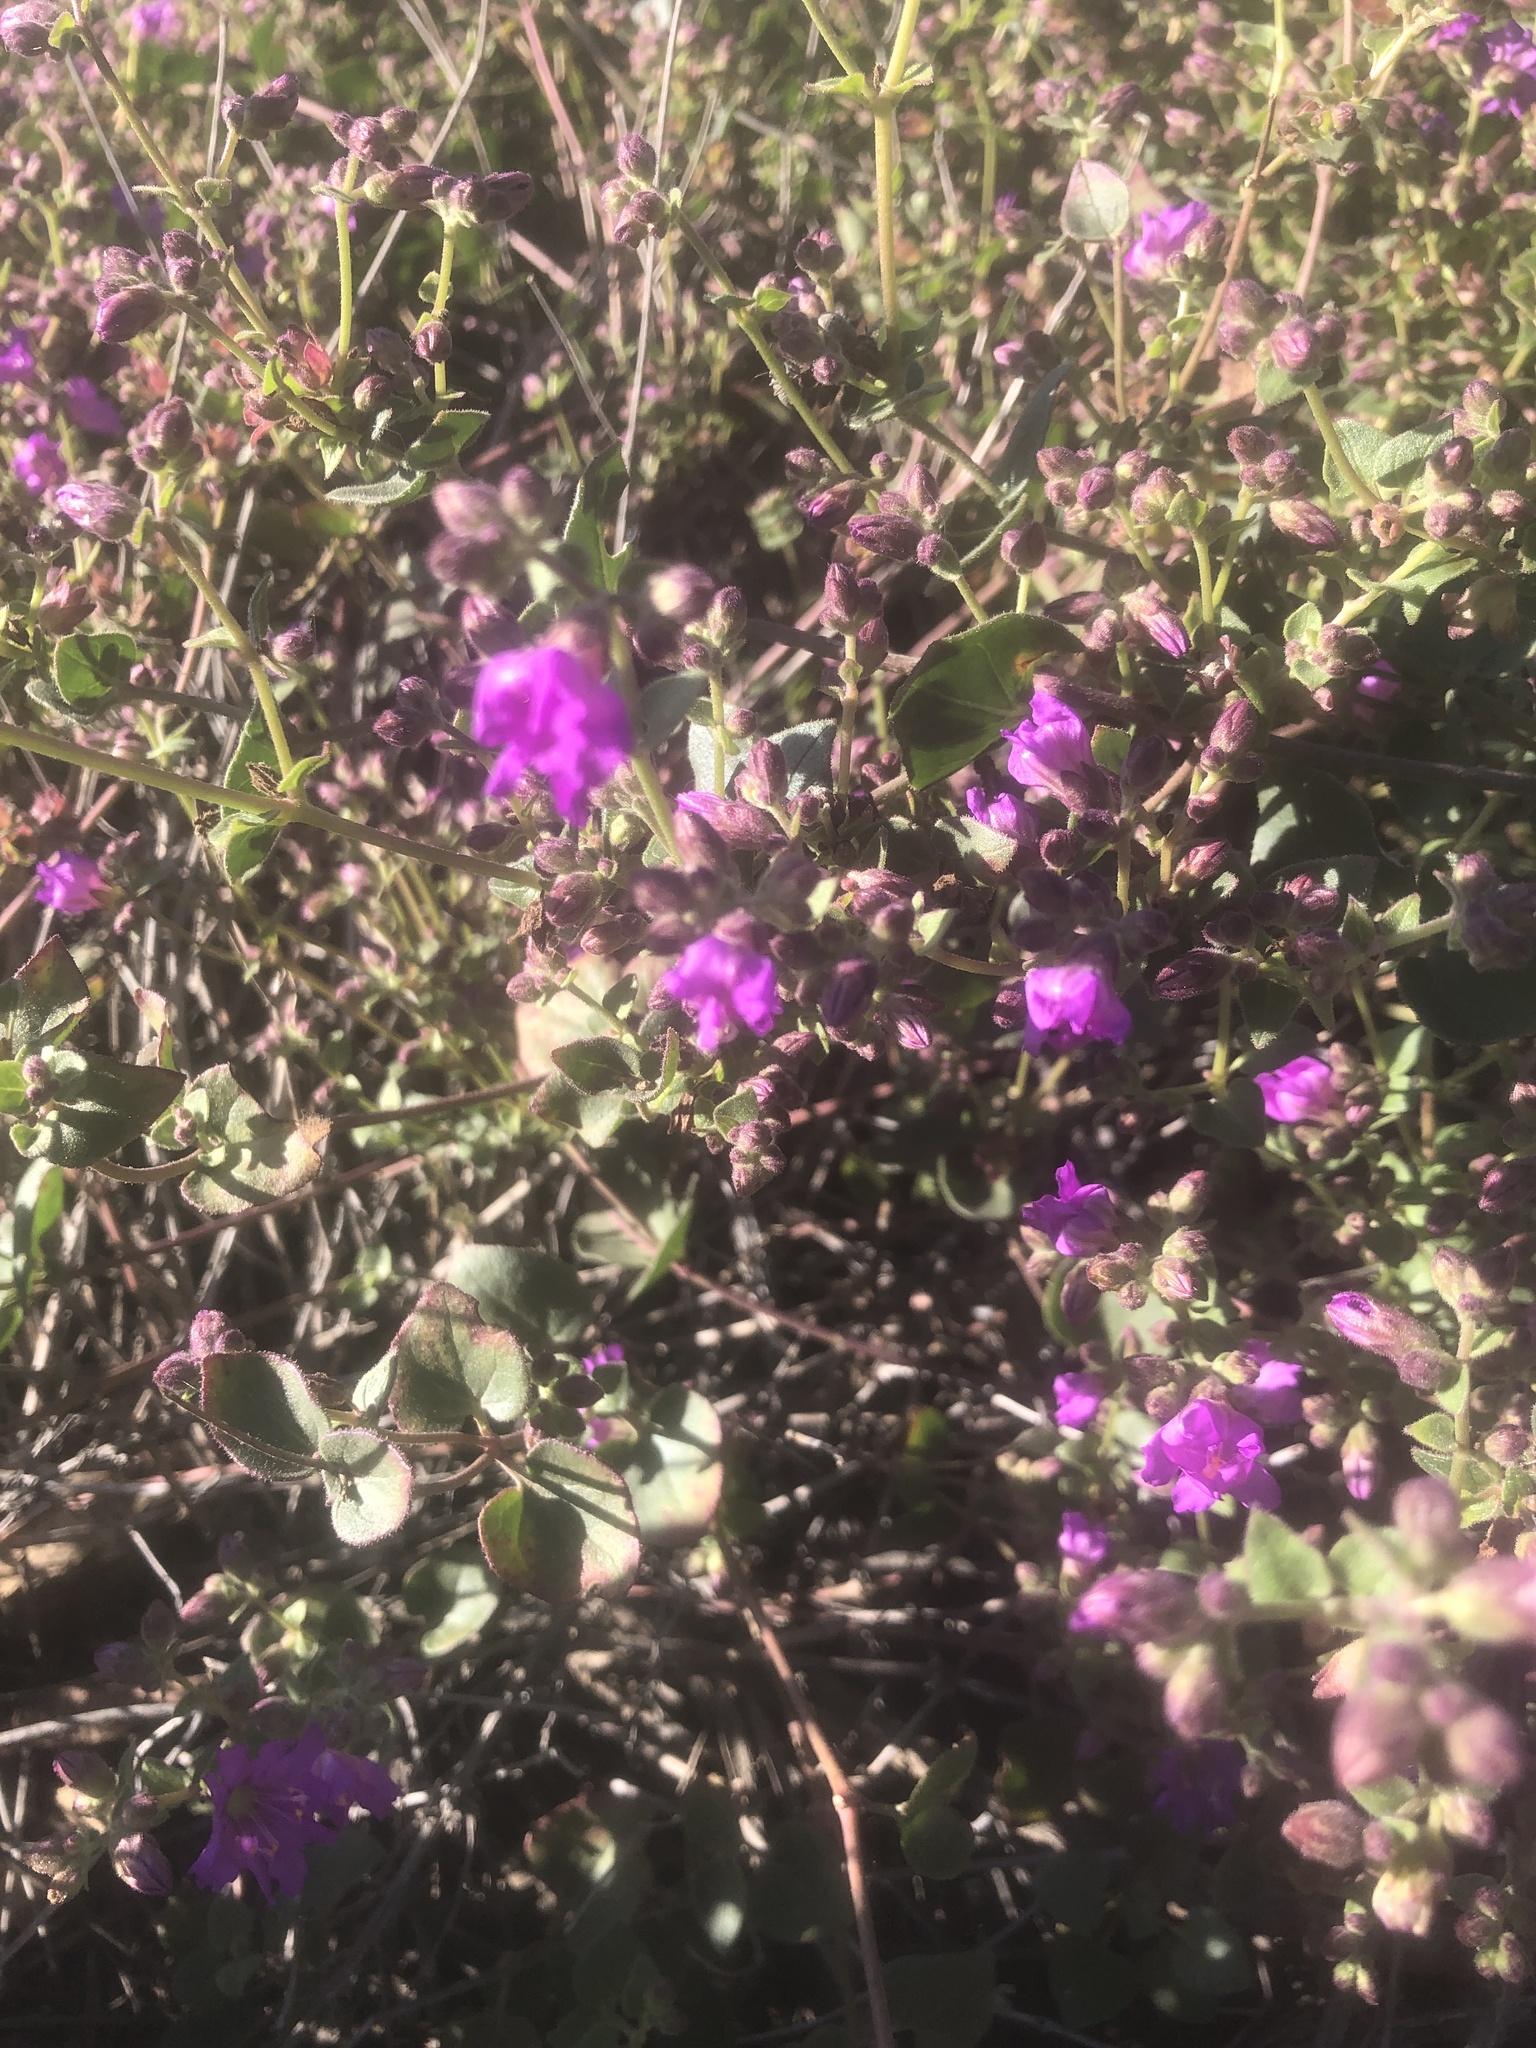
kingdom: Plantae
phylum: Tracheophyta
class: Magnoliopsida
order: Caryophyllales
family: Nyctaginaceae
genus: Mirabilis
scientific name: Mirabilis laevis
